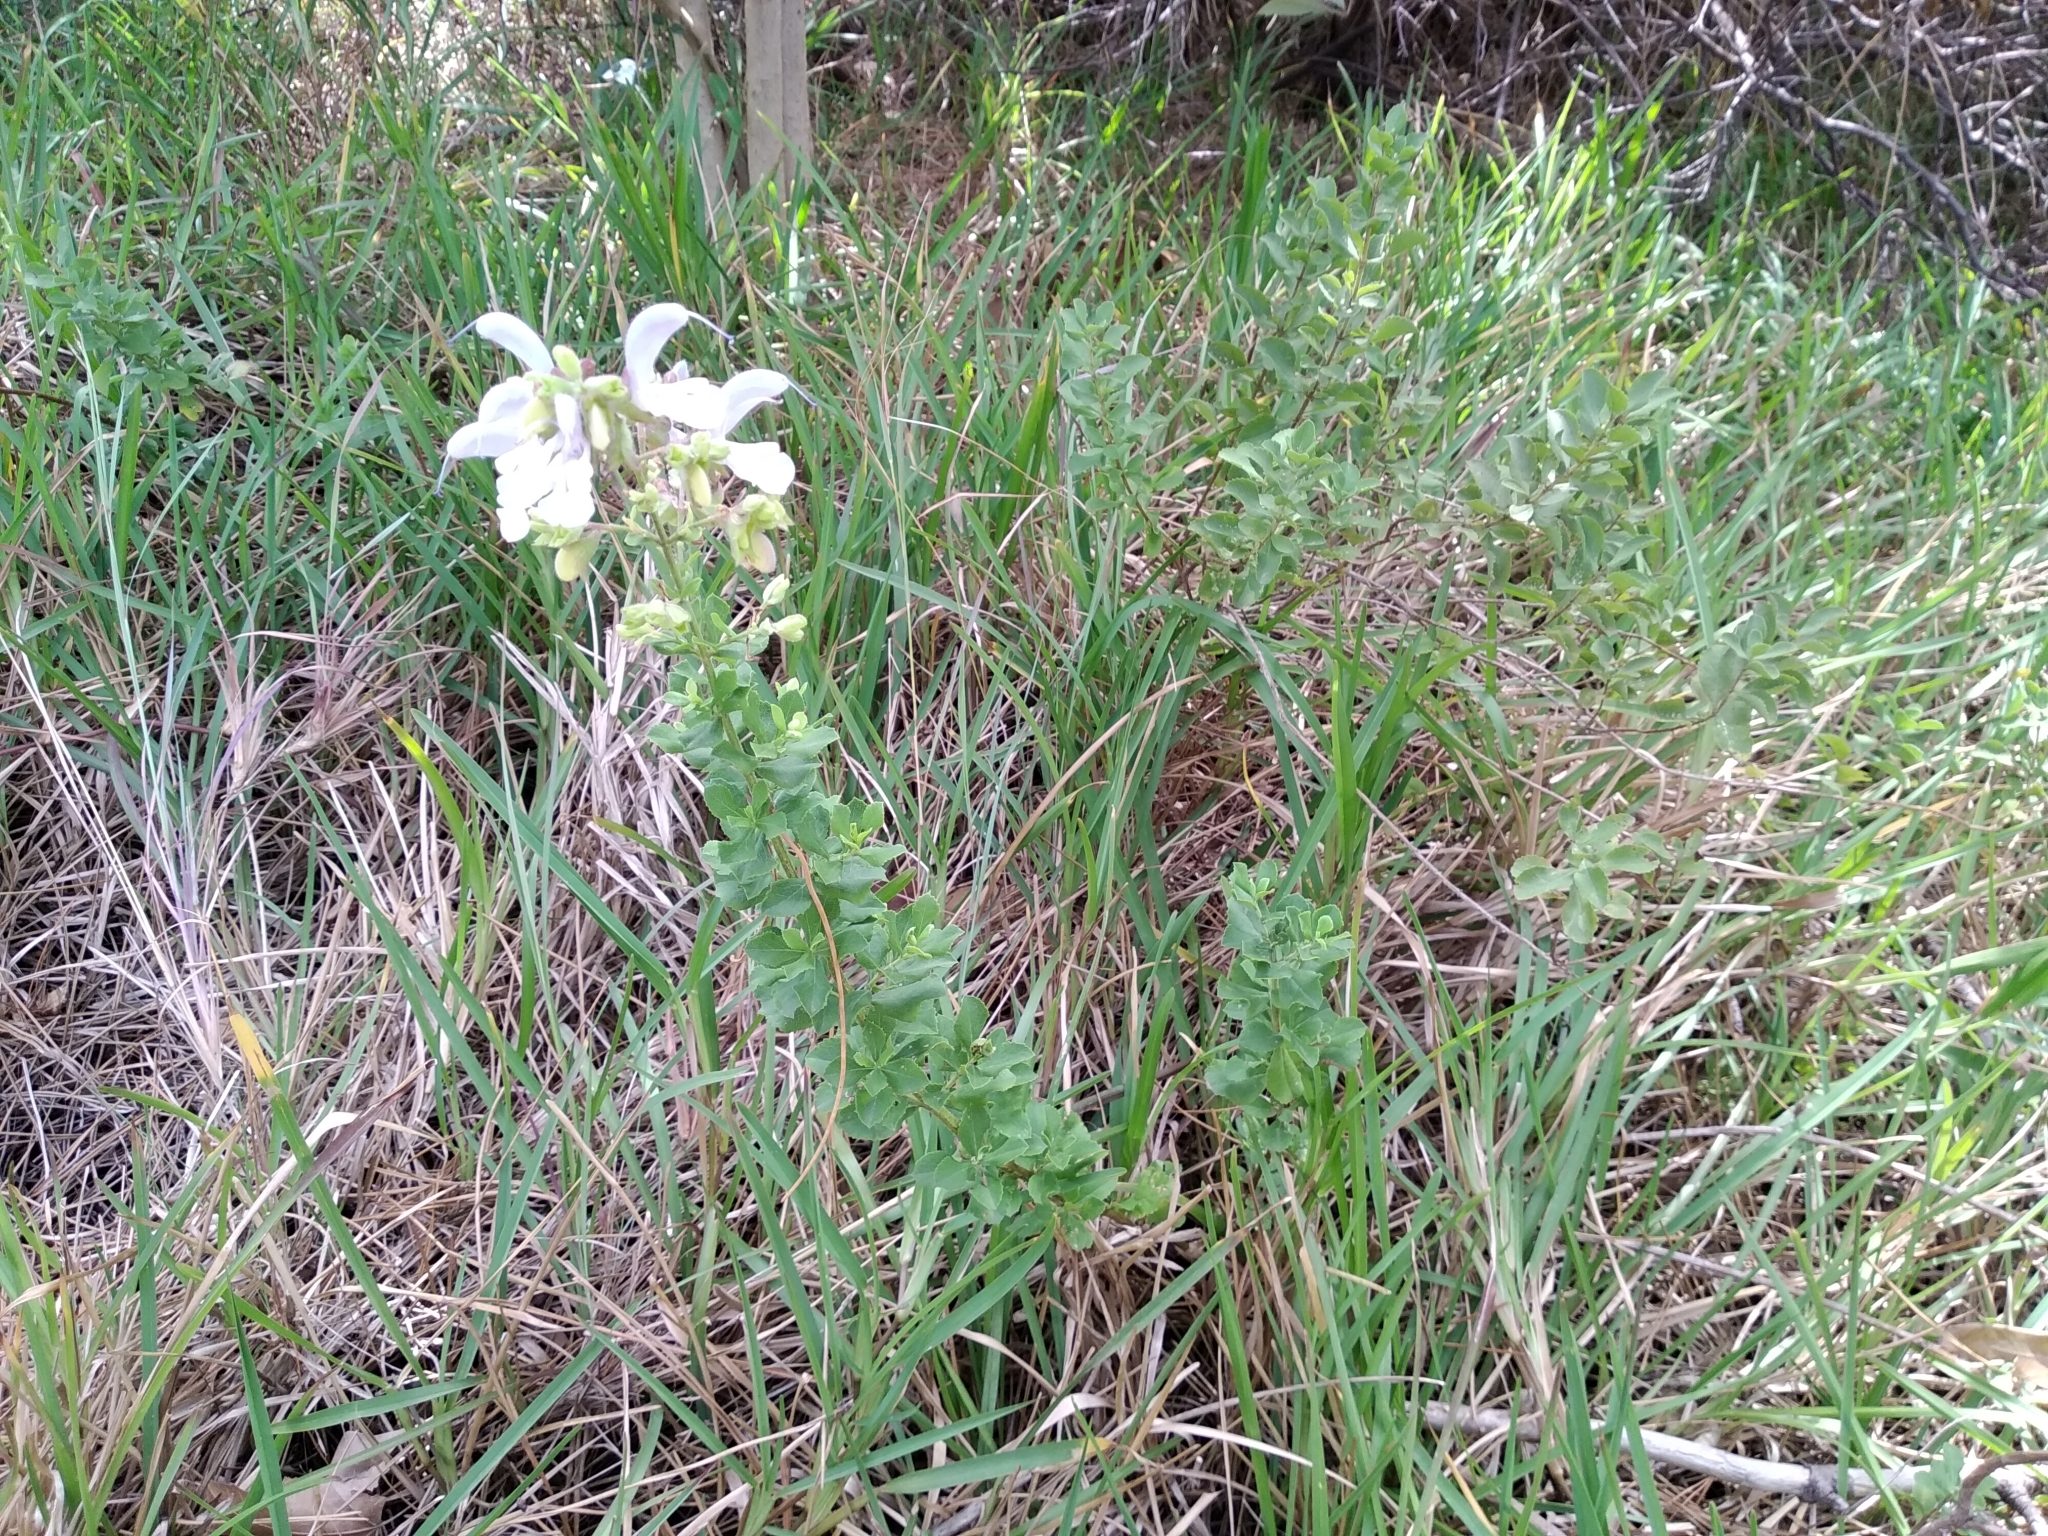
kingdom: Plantae
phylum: Tracheophyta
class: Magnoliopsida
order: Lamiales
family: Lamiaceae
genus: Salvia
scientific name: Salvia chamelaeagnea
